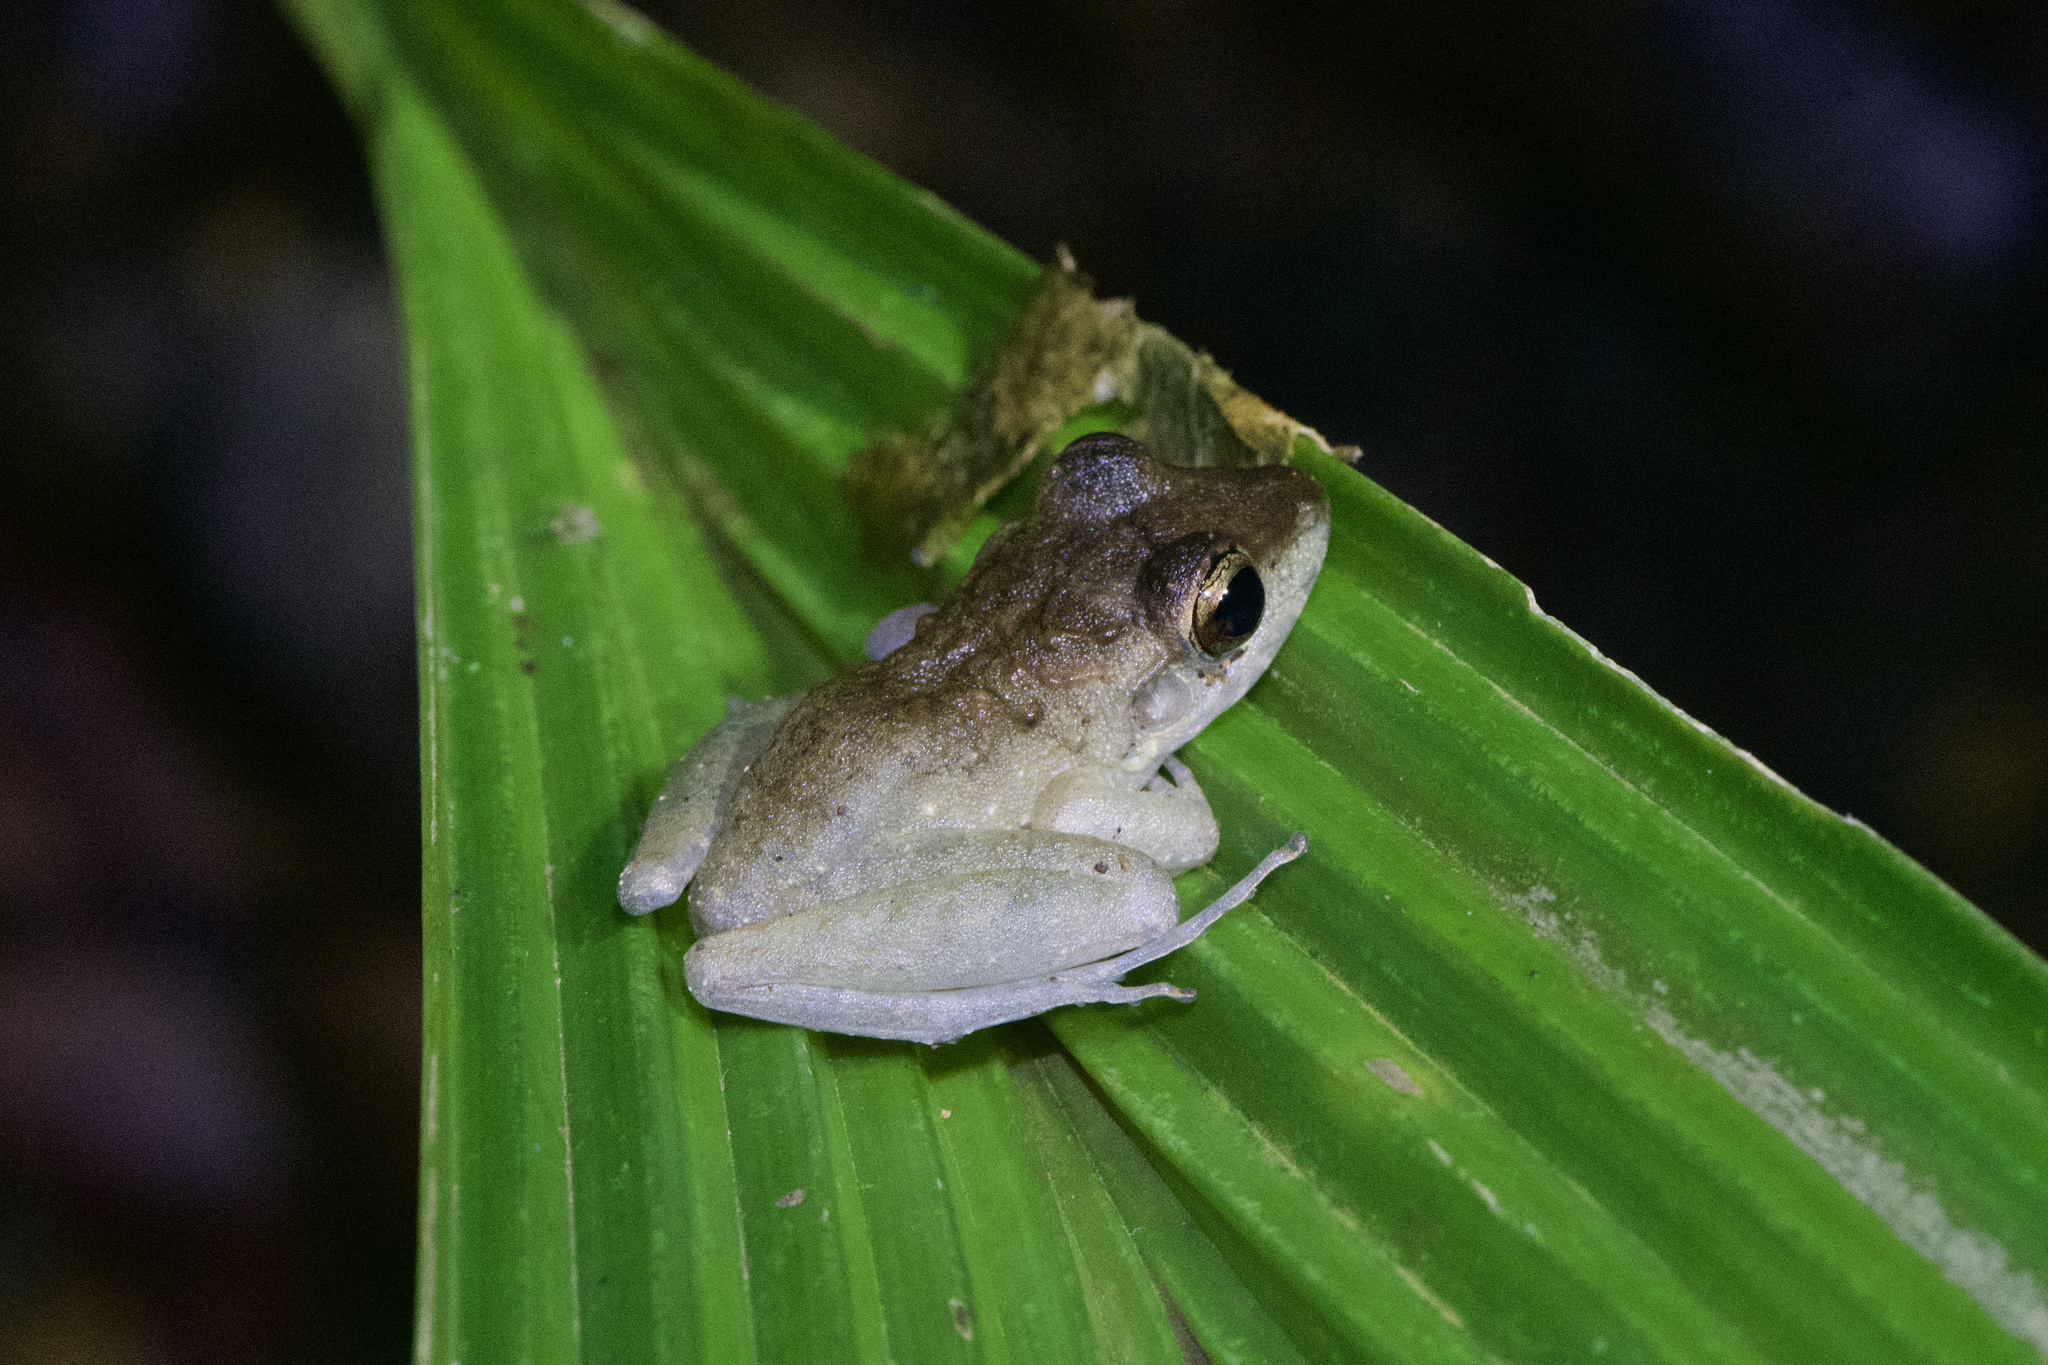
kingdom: Animalia
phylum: Chordata
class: Amphibia
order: Anura
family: Craugastoridae
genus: Craugastor
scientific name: Craugastor fitzingeri
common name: Fitzinger's robber frog
